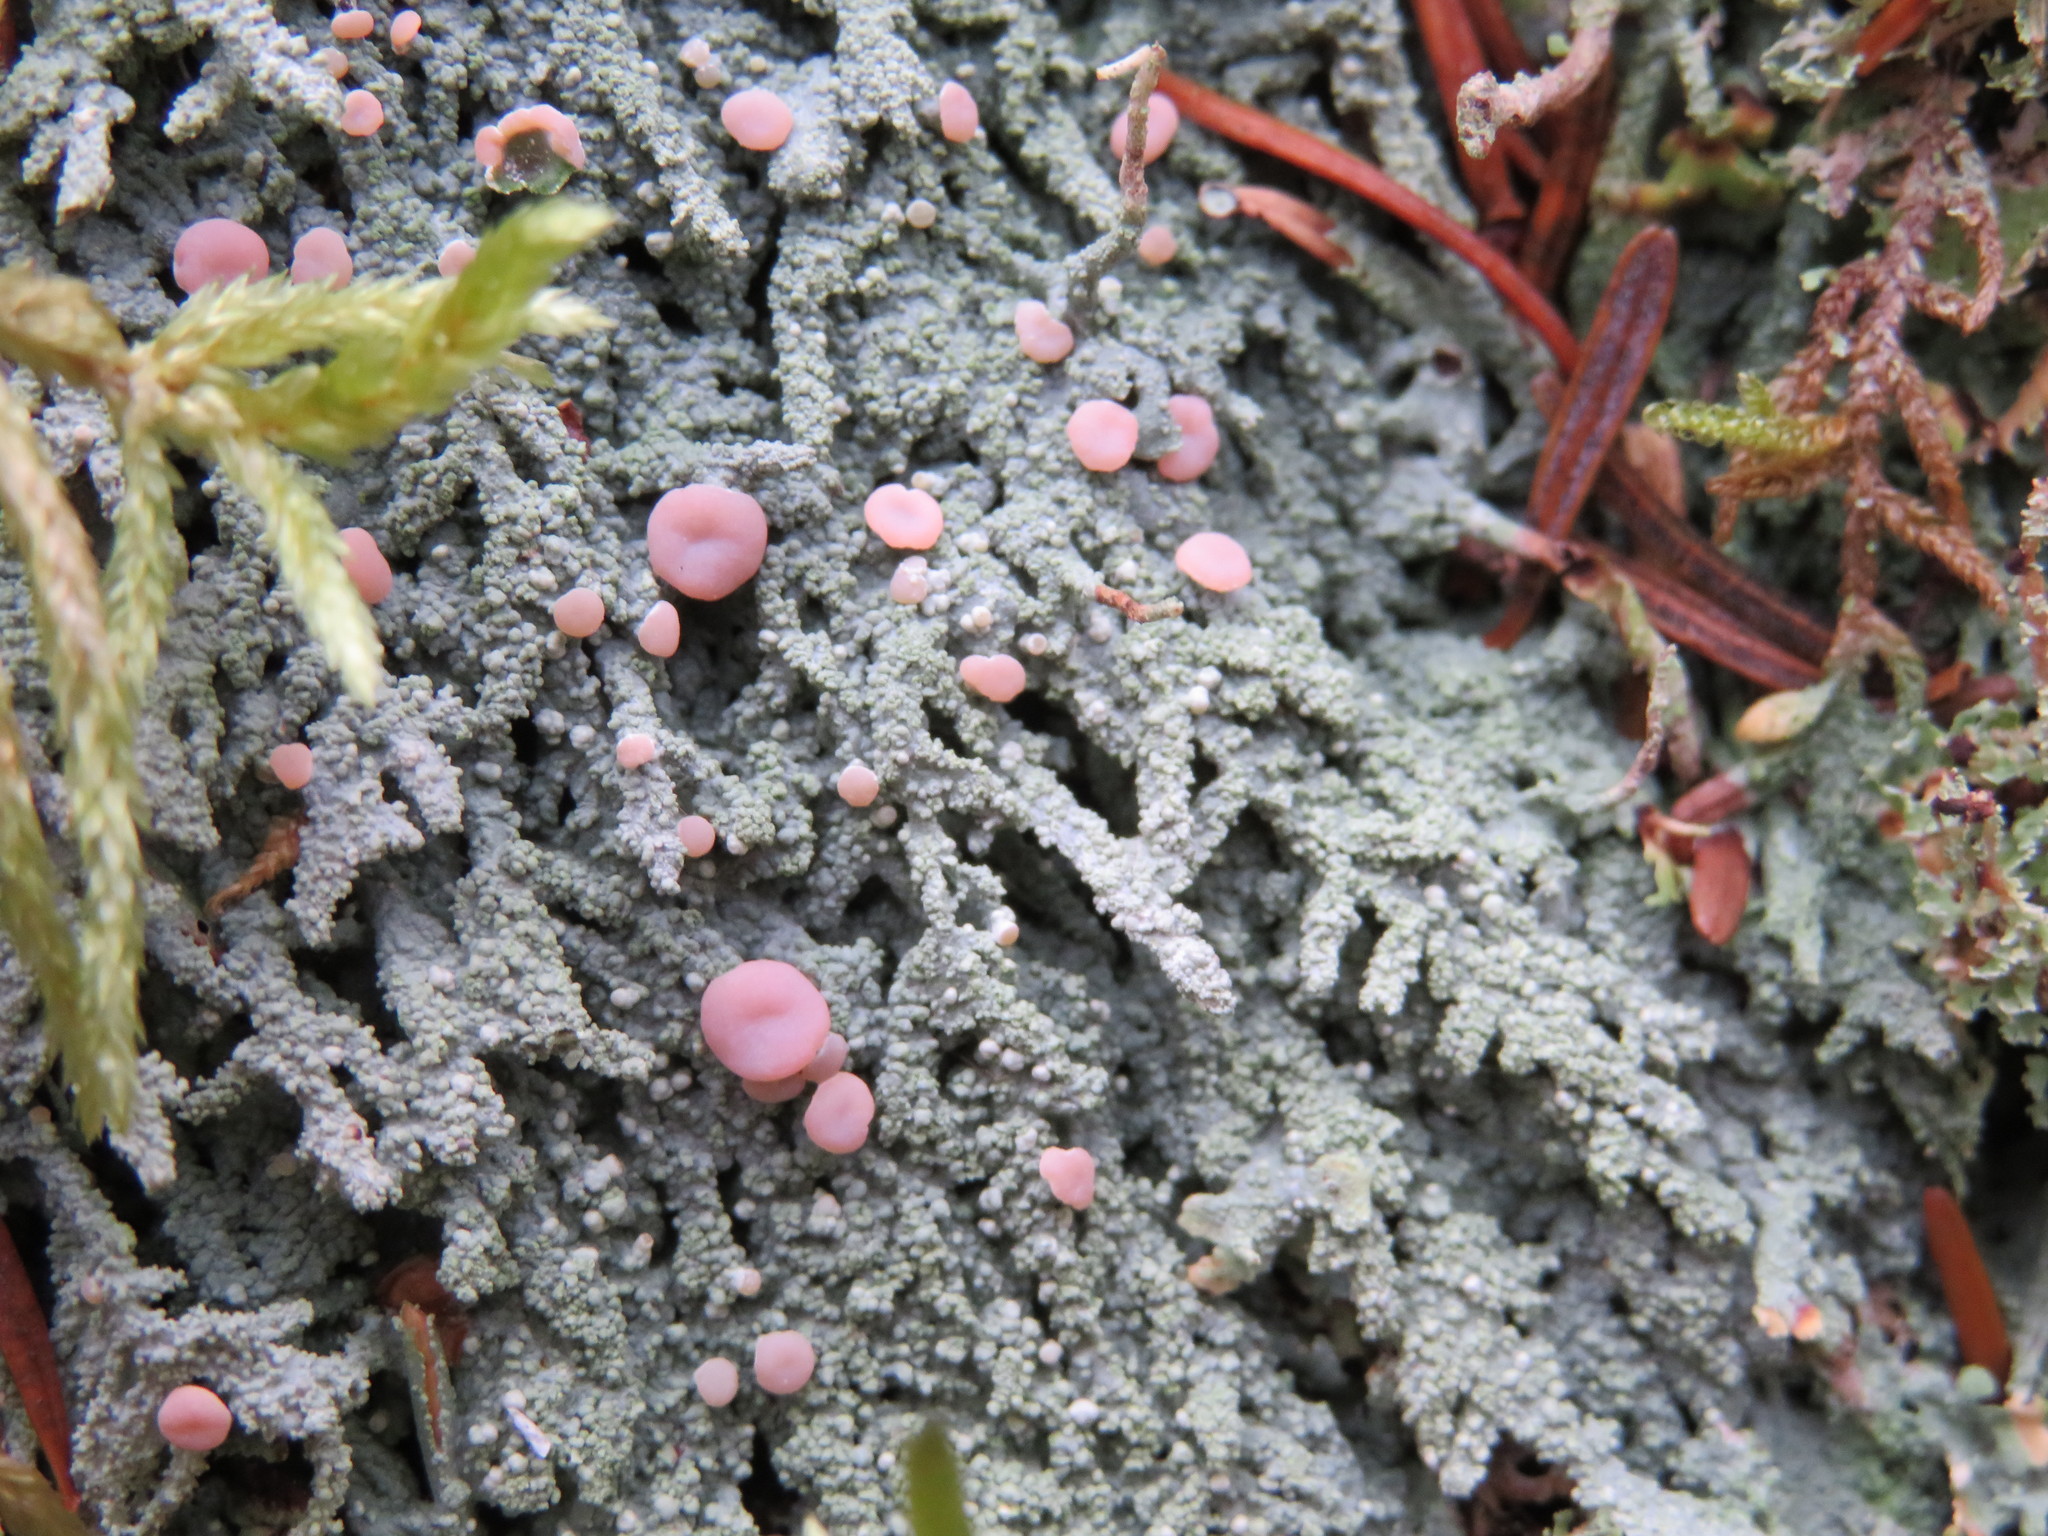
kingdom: Fungi
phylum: Ascomycota
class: Lecanoromycetes
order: Pertusariales
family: Icmadophilaceae
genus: Icmadophila
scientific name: Icmadophila ericetorum
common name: Candy lichen
